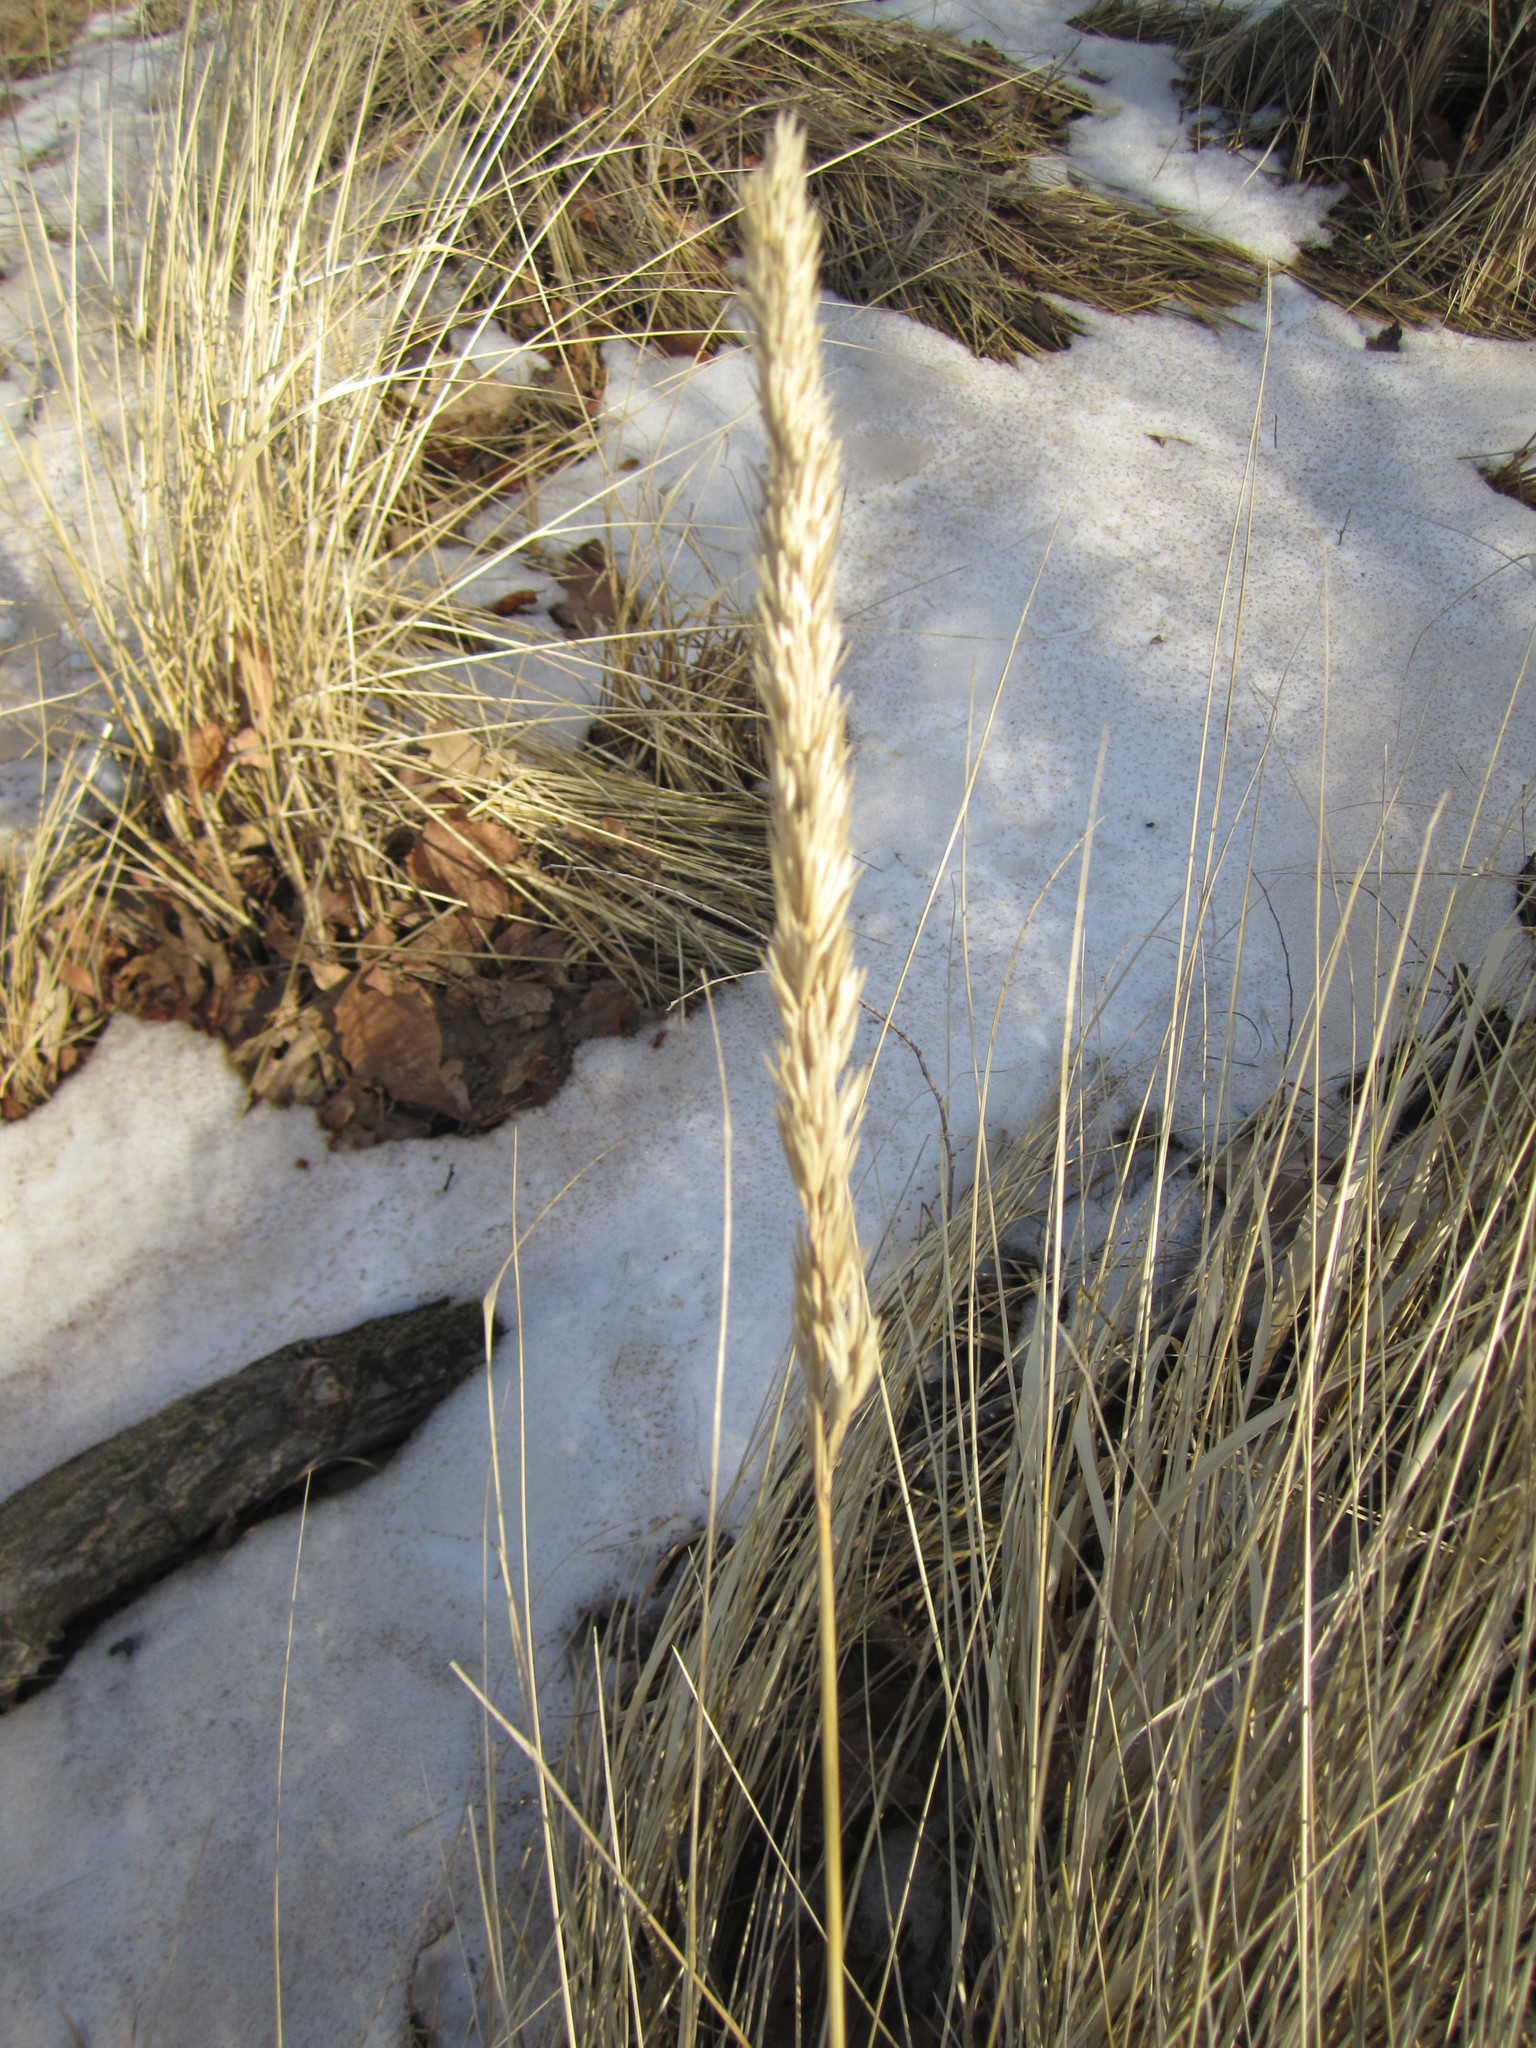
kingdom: Plantae
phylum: Tracheophyta
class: Liliopsida
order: Poales
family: Poaceae
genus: Calamagrostis
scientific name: Calamagrostis breviligulata
